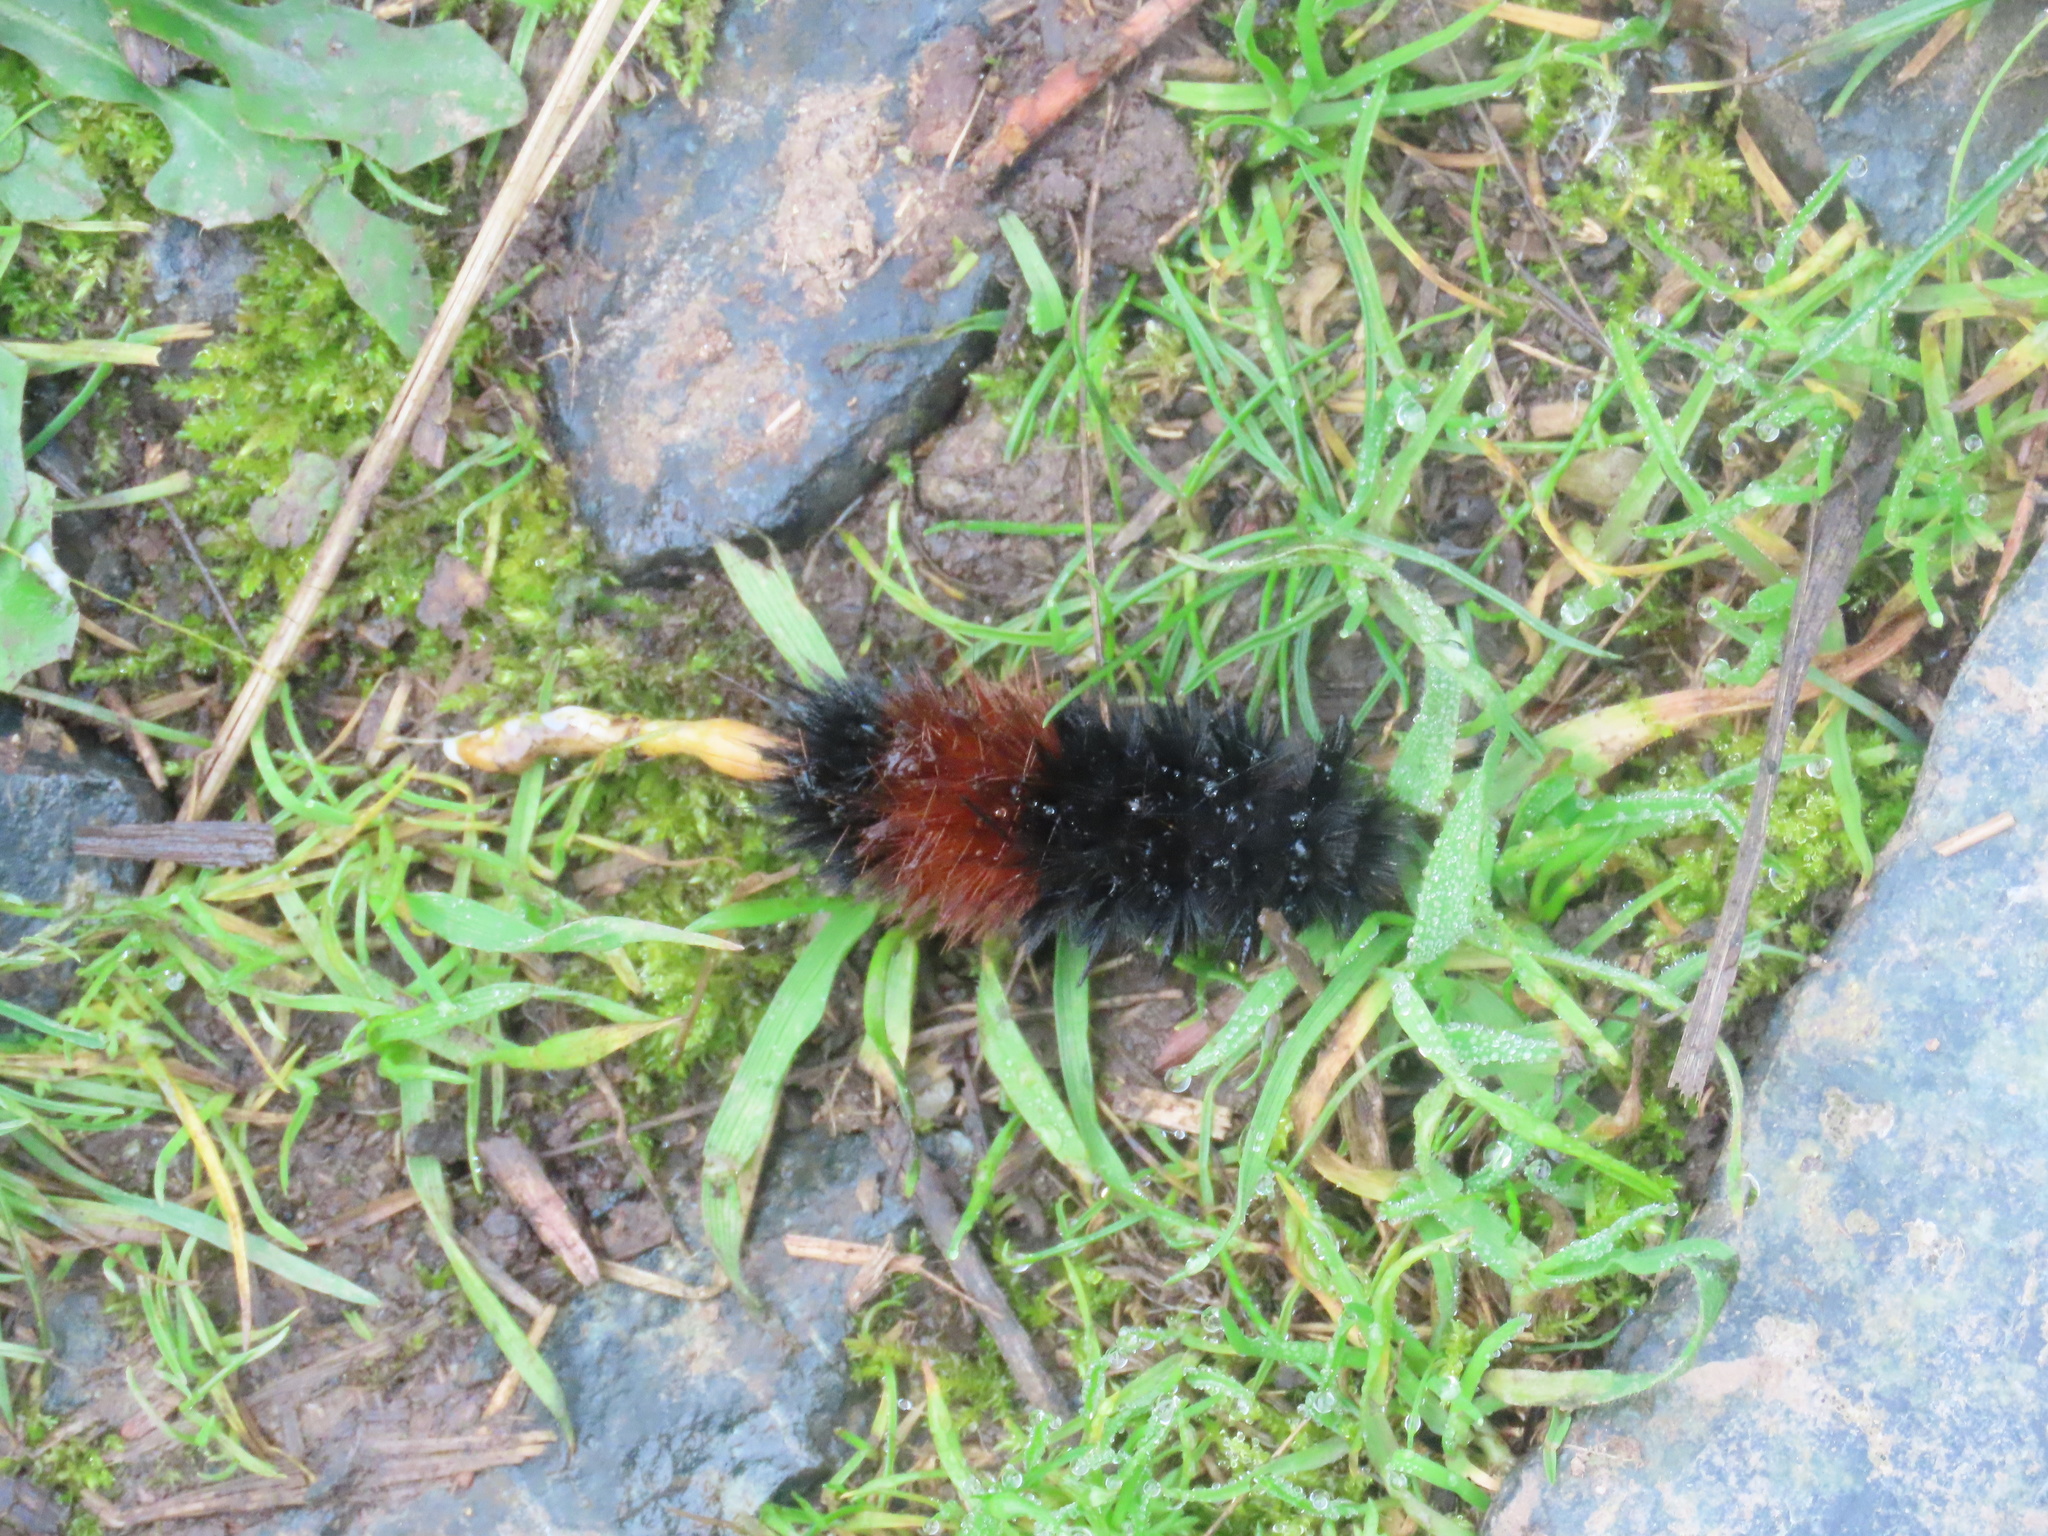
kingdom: Animalia
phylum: Arthropoda
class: Insecta
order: Lepidoptera
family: Erebidae
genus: Pyrrharctia
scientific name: Pyrrharctia isabella
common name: Isabella tiger moth
